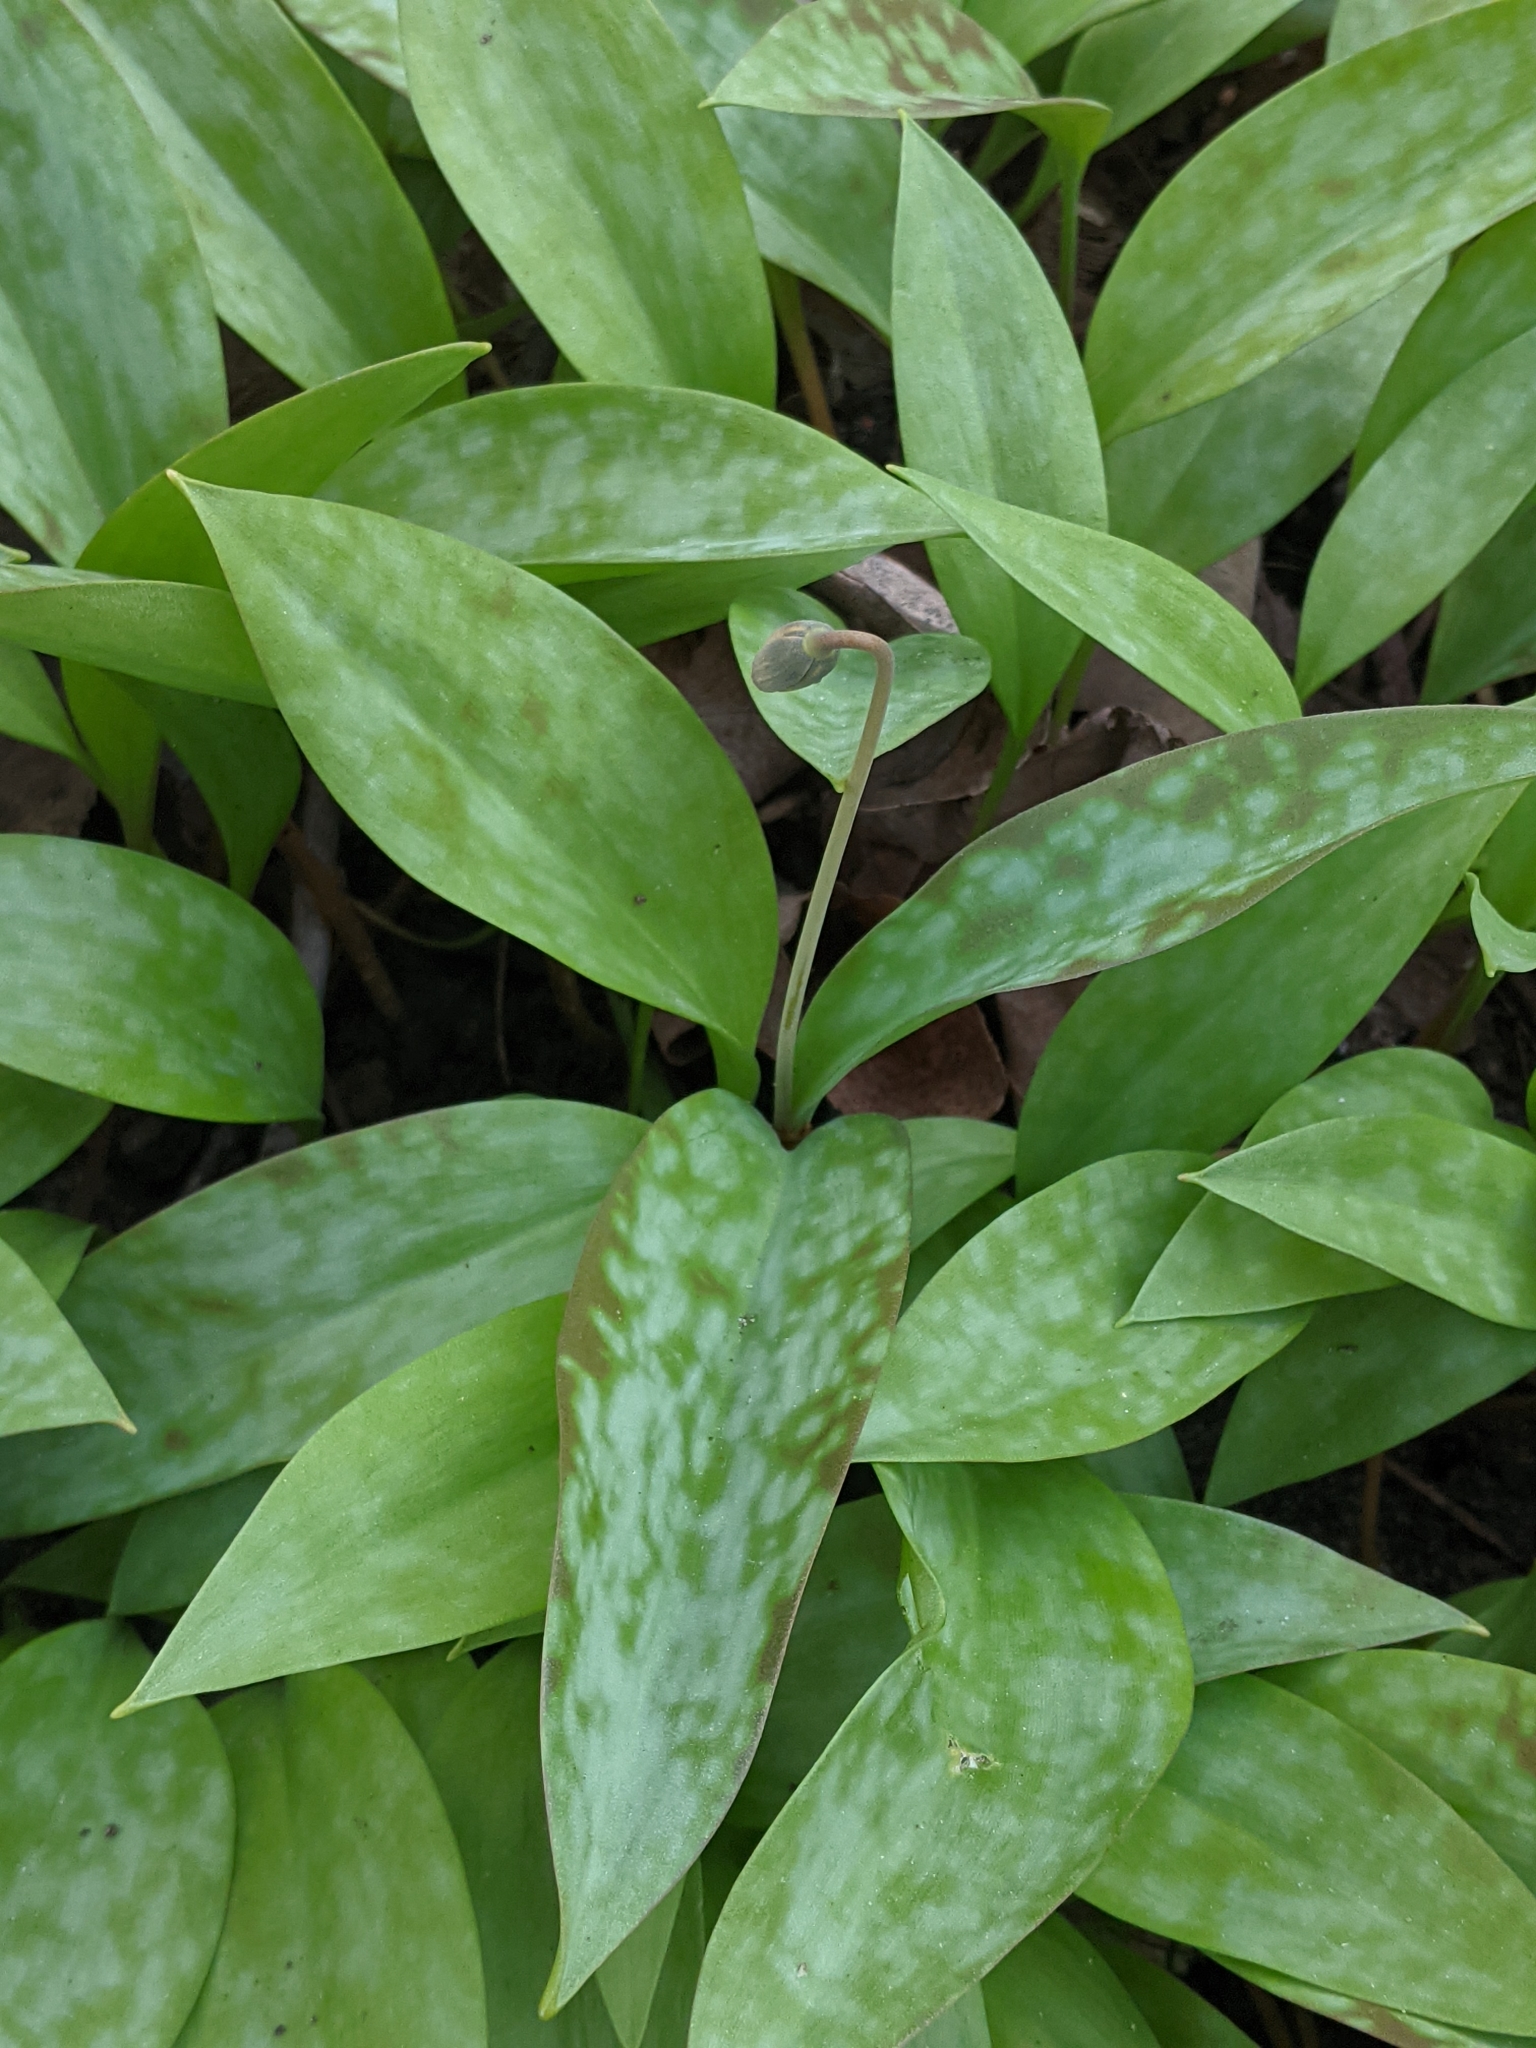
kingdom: Plantae
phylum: Tracheophyta
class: Liliopsida
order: Liliales
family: Liliaceae
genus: Erythronium
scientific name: Erythronium americanum
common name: Yellow adder's-tongue
